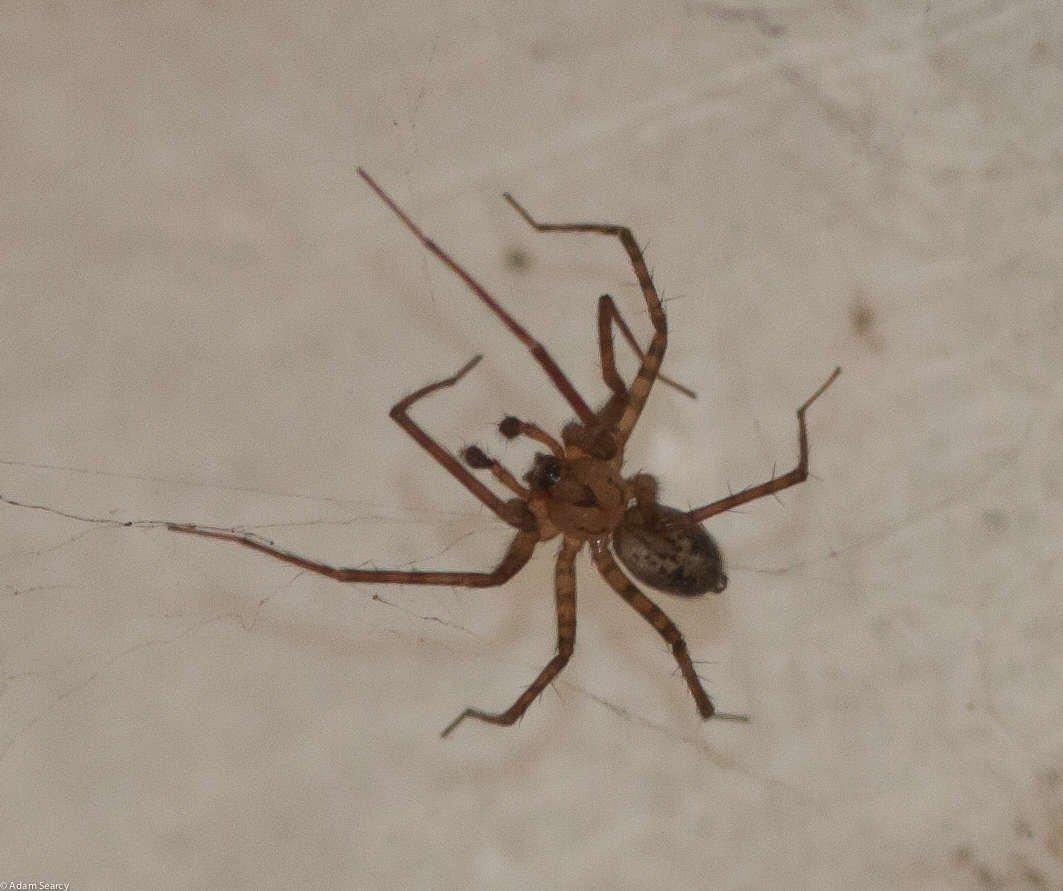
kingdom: Animalia
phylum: Arthropoda
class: Arachnida
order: Araneae
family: Cybaeidae
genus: Calymmaria
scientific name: Calymmaria
